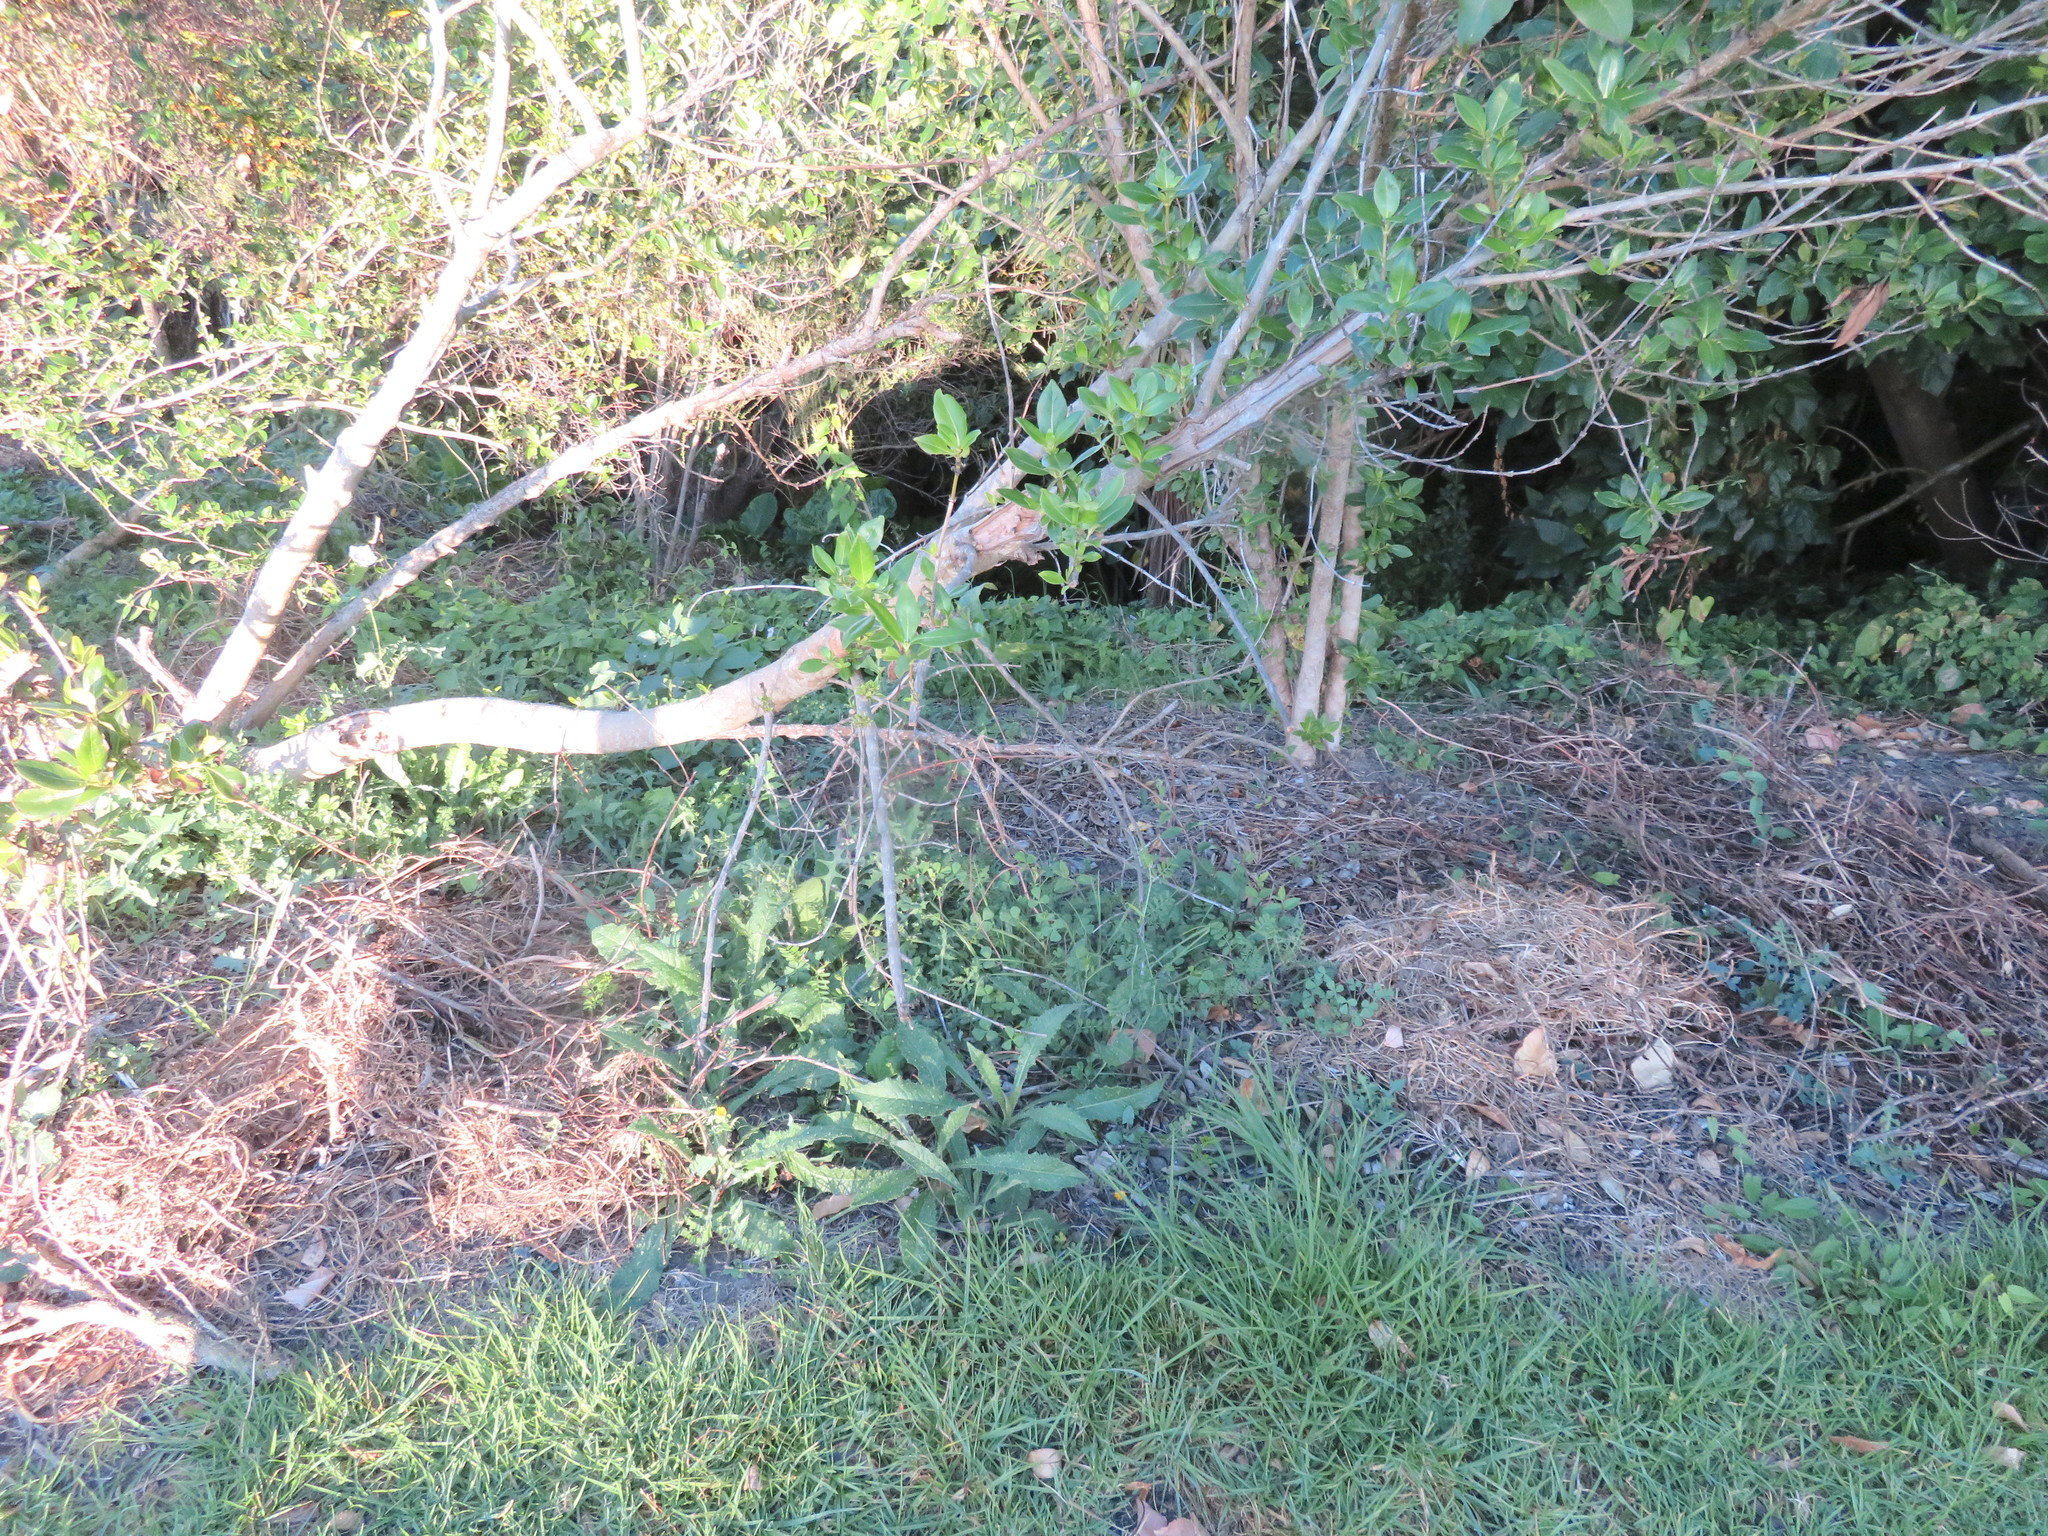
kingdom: Plantae
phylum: Tracheophyta
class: Magnoliopsida
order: Gentianales
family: Rubiaceae
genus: Coprosma
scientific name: Coprosma robusta
